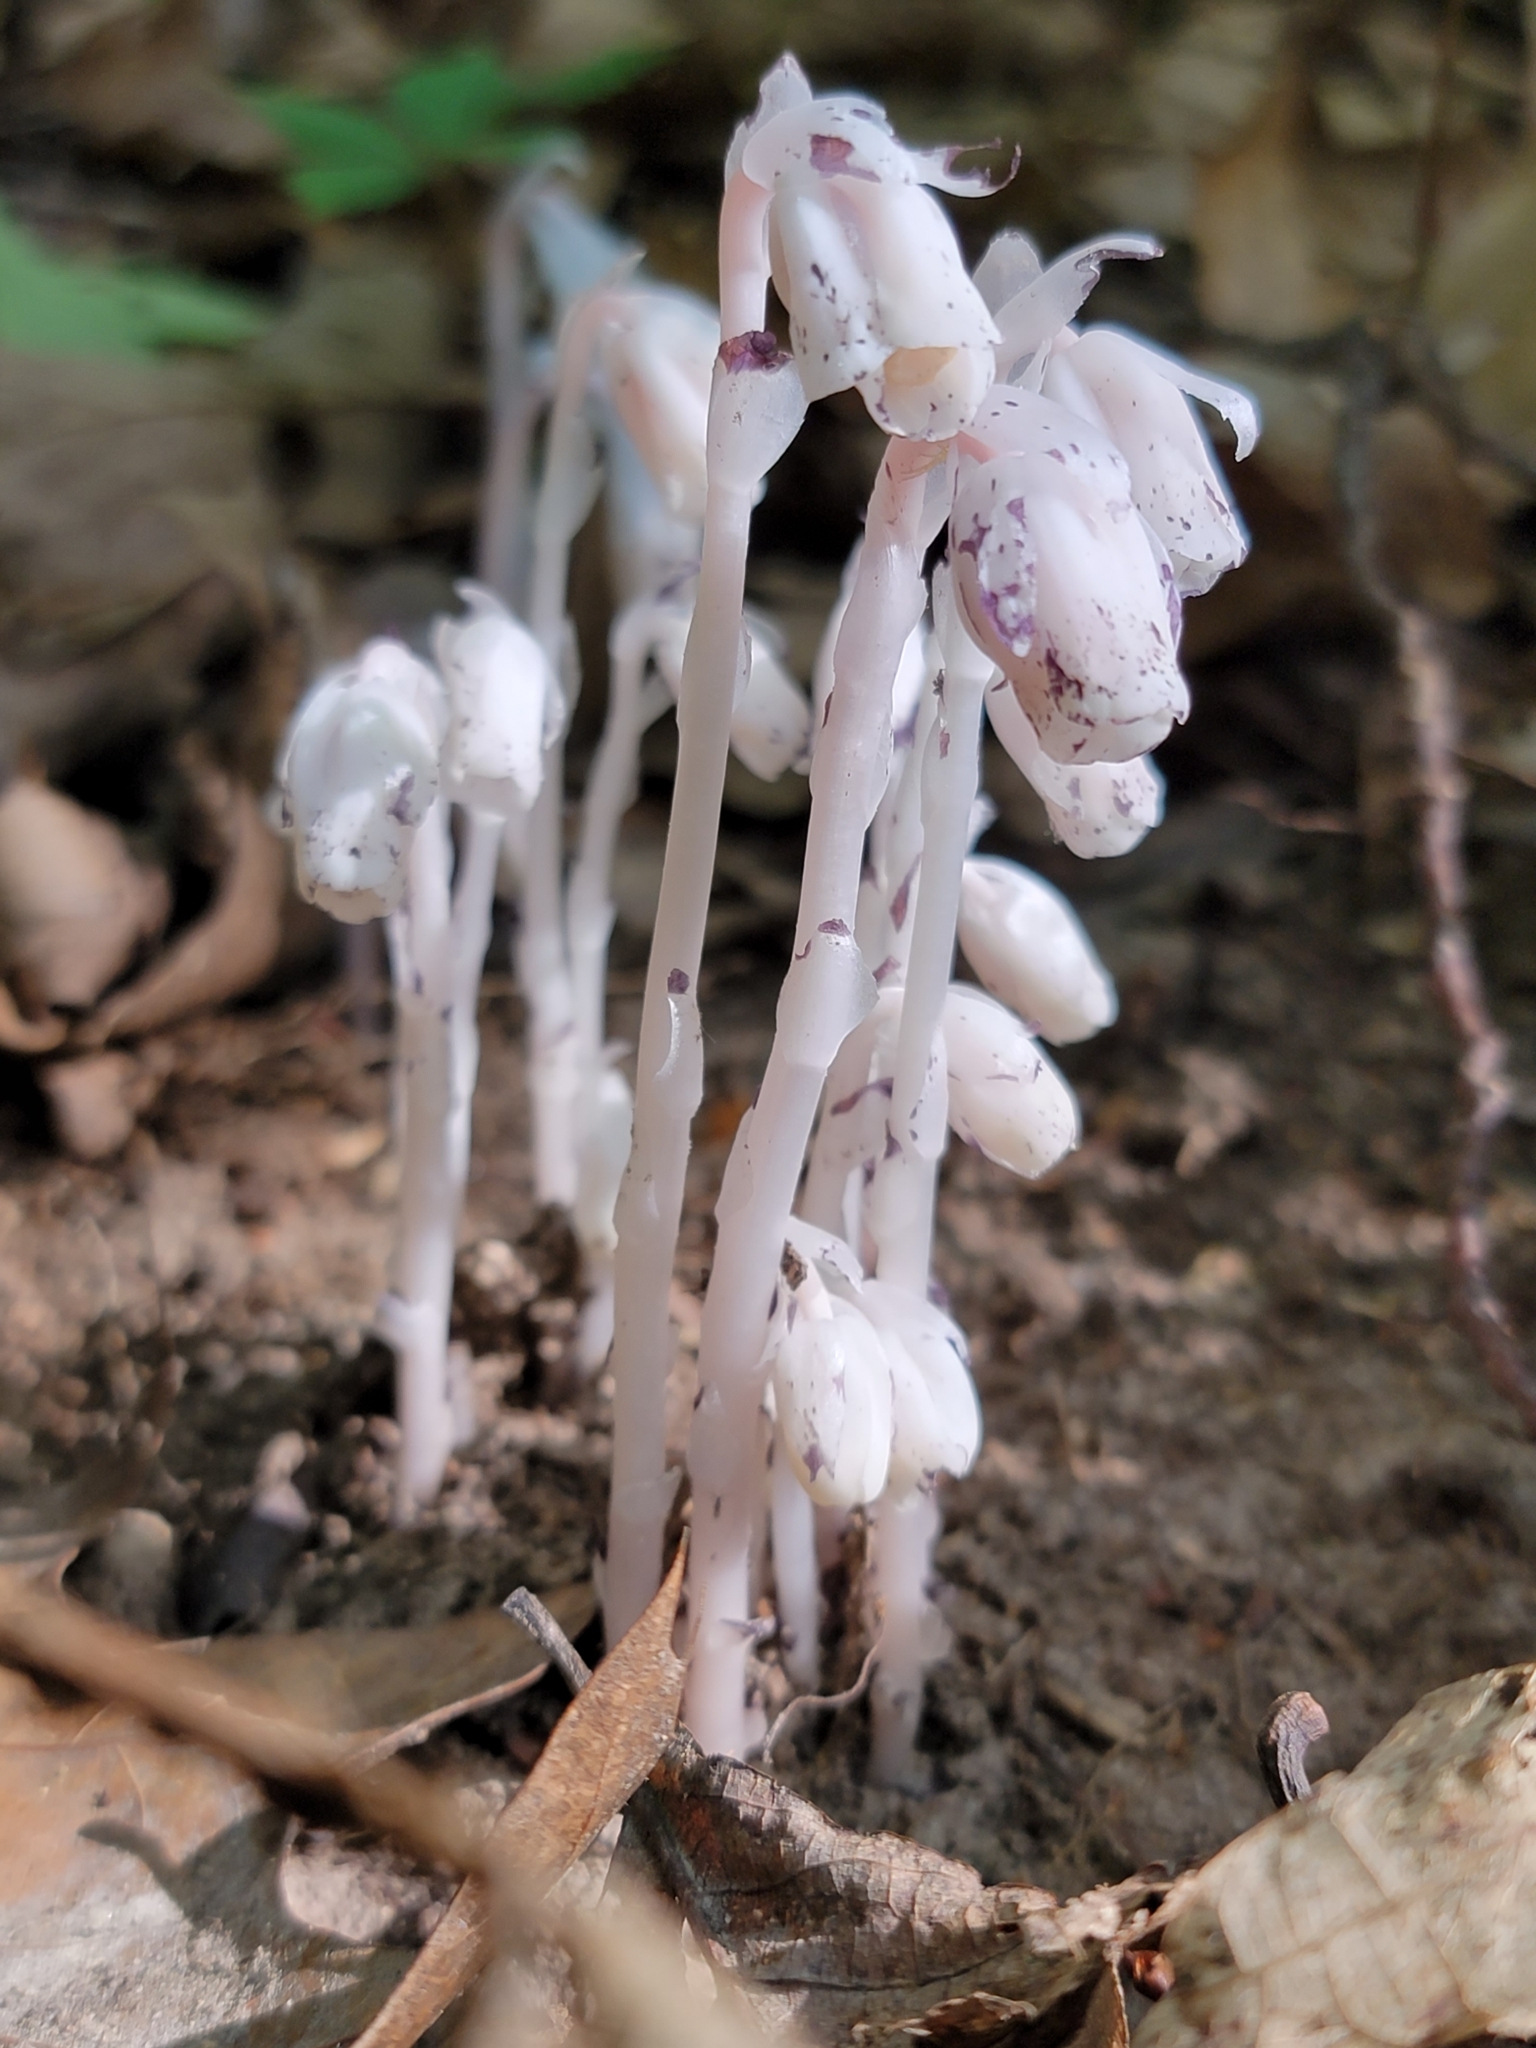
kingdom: Plantae
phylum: Tracheophyta
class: Magnoliopsida
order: Ericales
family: Ericaceae
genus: Monotropa
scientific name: Monotropa uniflora
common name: Convulsion root
